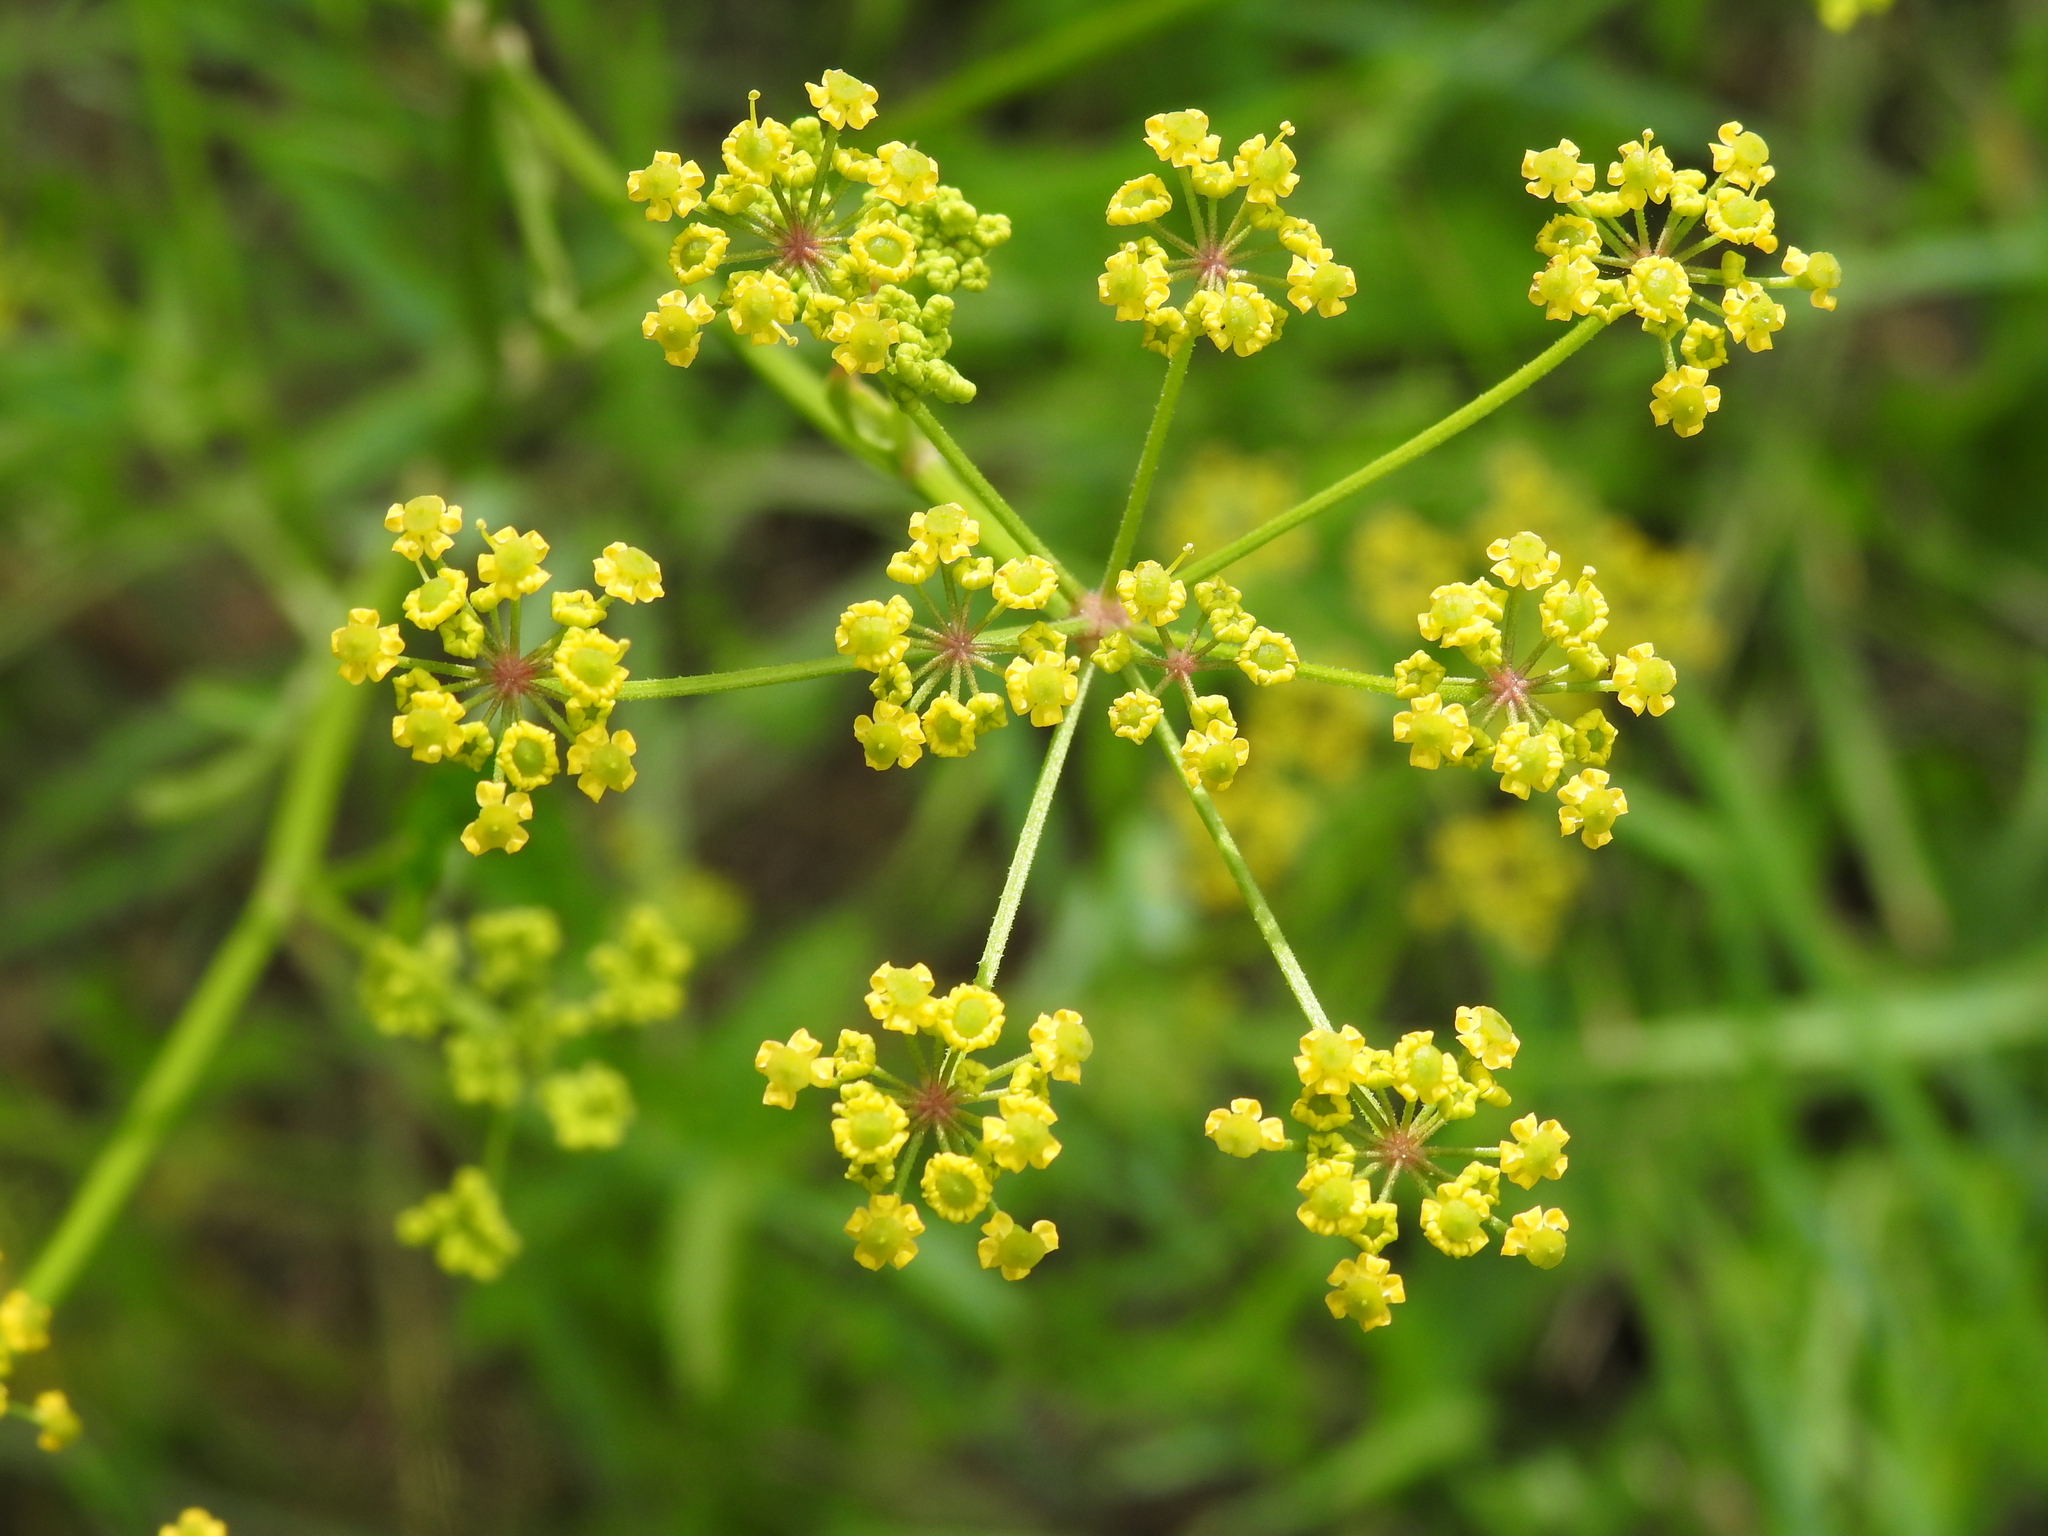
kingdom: Plantae
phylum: Tracheophyta
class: Magnoliopsida
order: Apiales
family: Apiaceae
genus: Pastinaca
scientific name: Pastinaca sativa
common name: Wild parsnip
